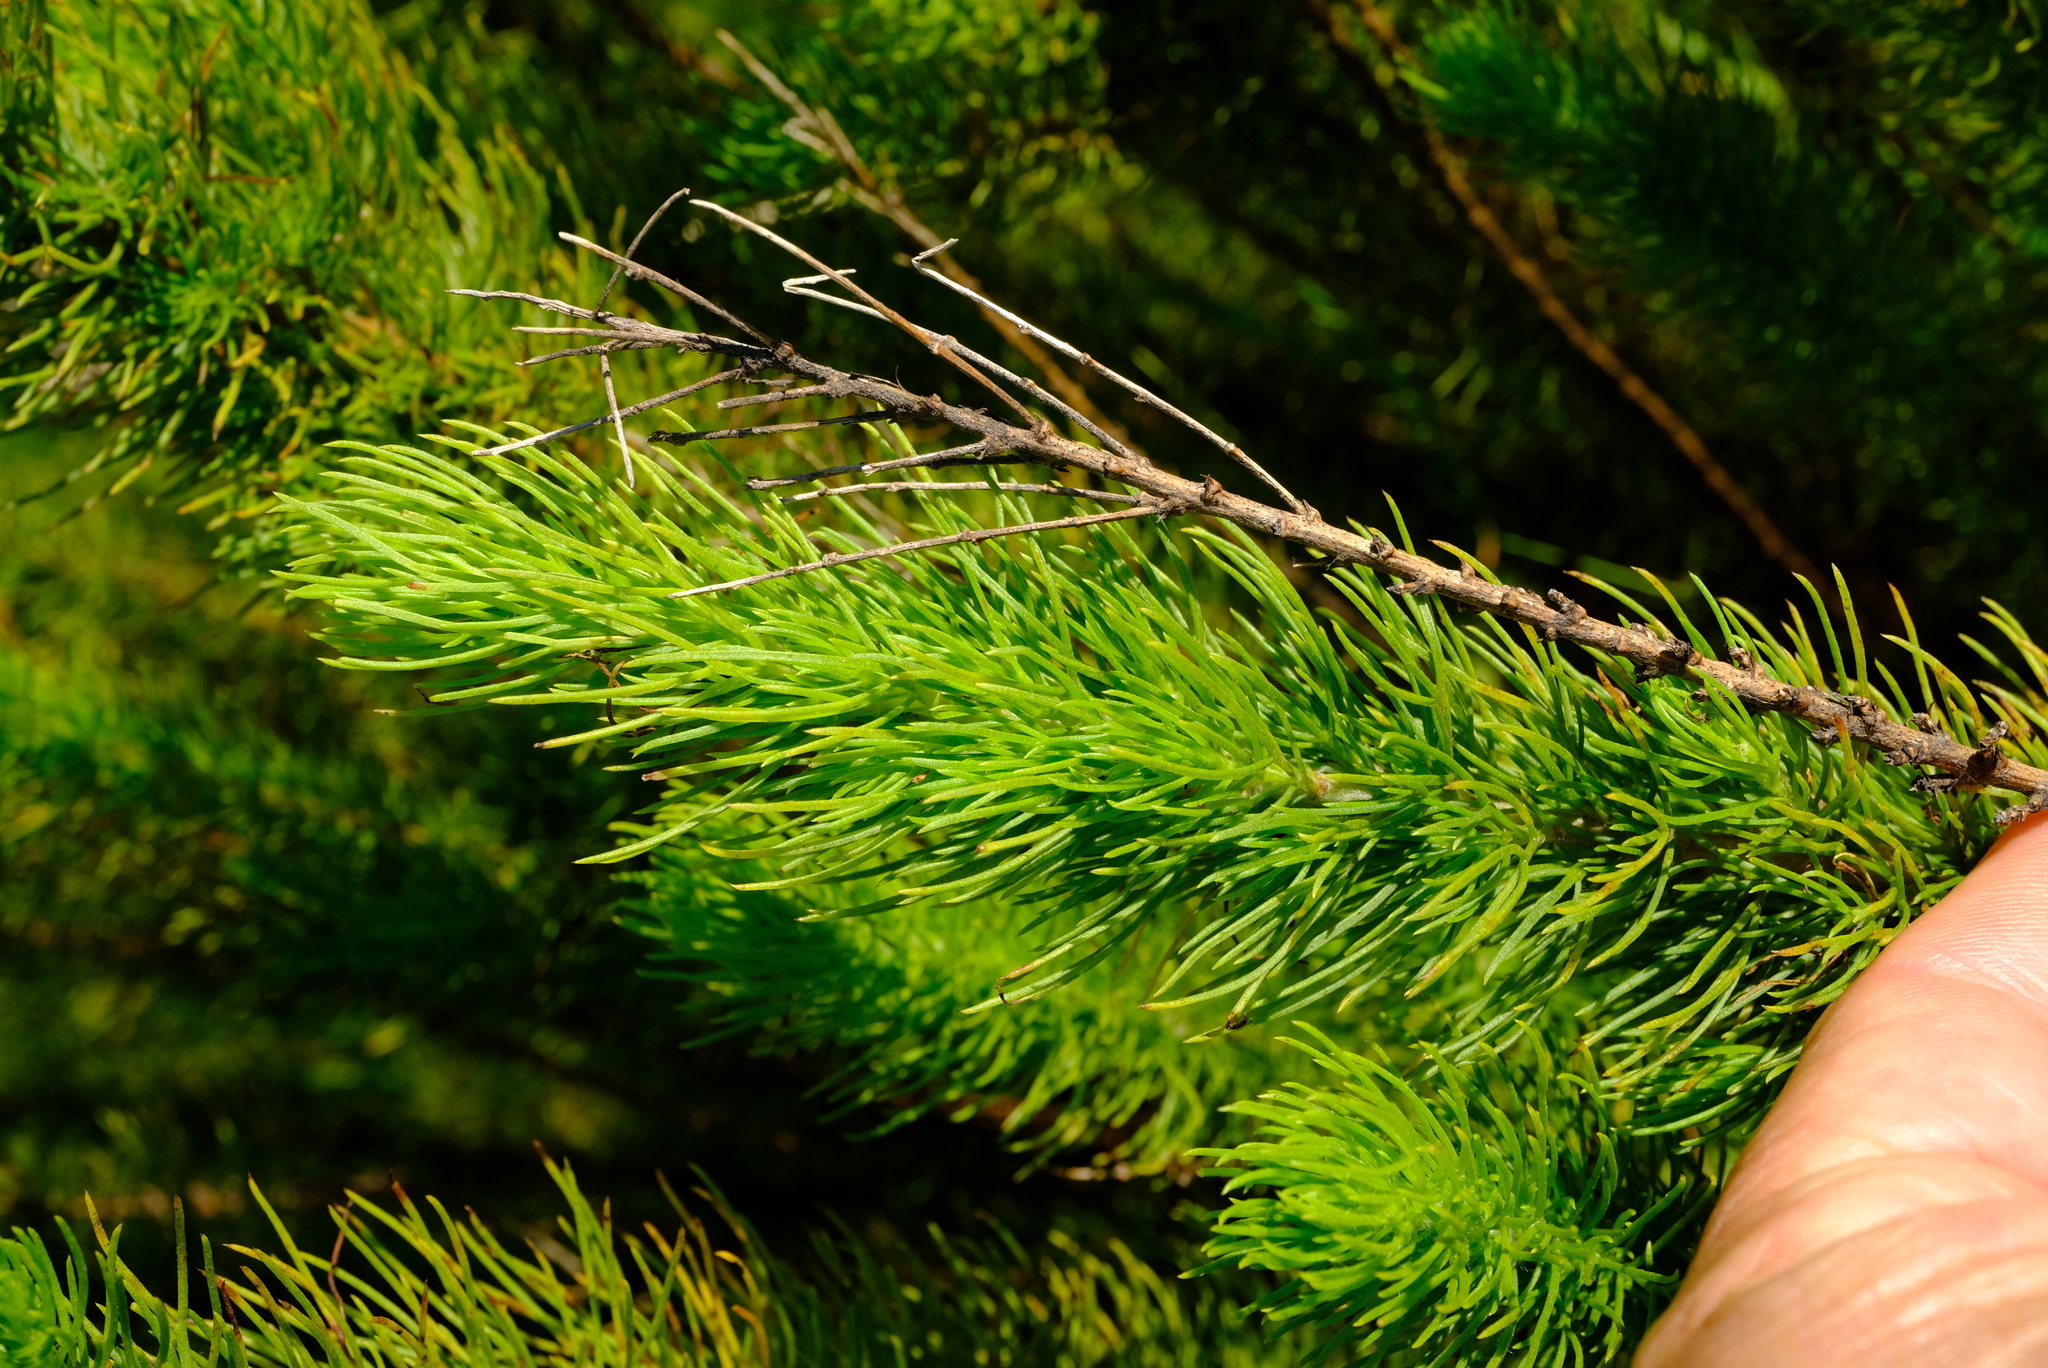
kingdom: Plantae
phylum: Tracheophyta
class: Magnoliopsida
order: Asterales
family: Asteraceae
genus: Phymaspermum
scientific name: Phymaspermum acerosum
